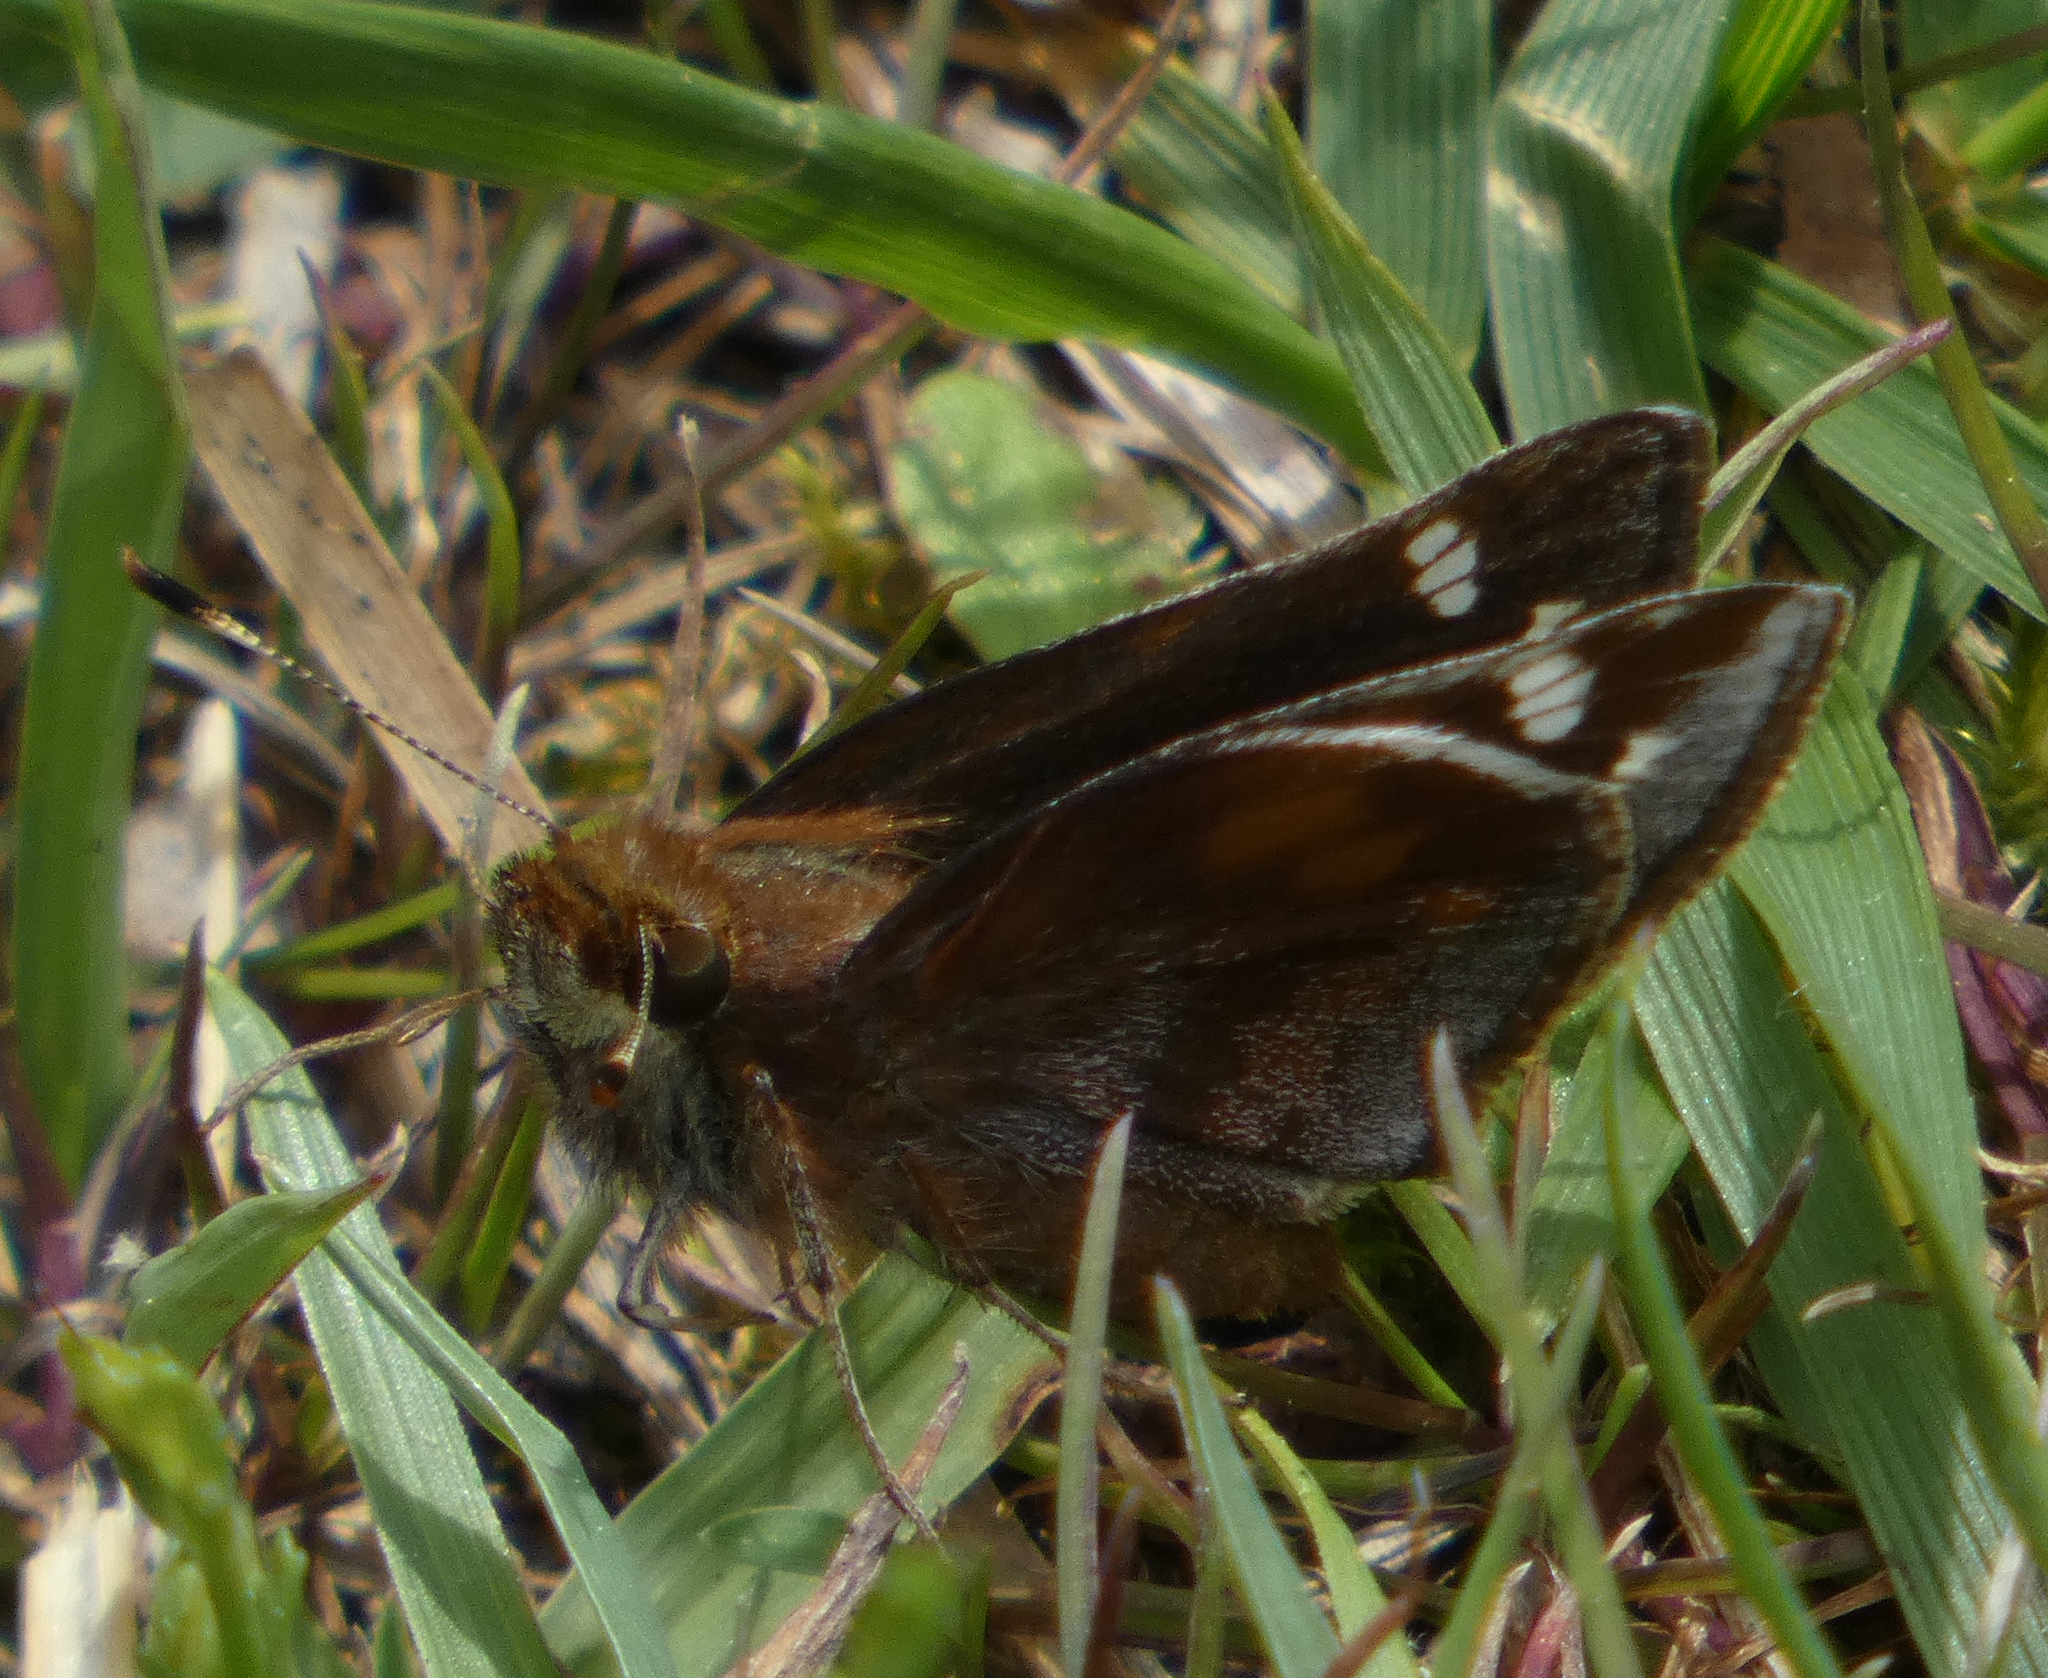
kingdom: Animalia
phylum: Arthropoda
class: Insecta
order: Lepidoptera
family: Hesperiidae
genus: Lon
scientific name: Lon zabulon
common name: Zabulon skipper
